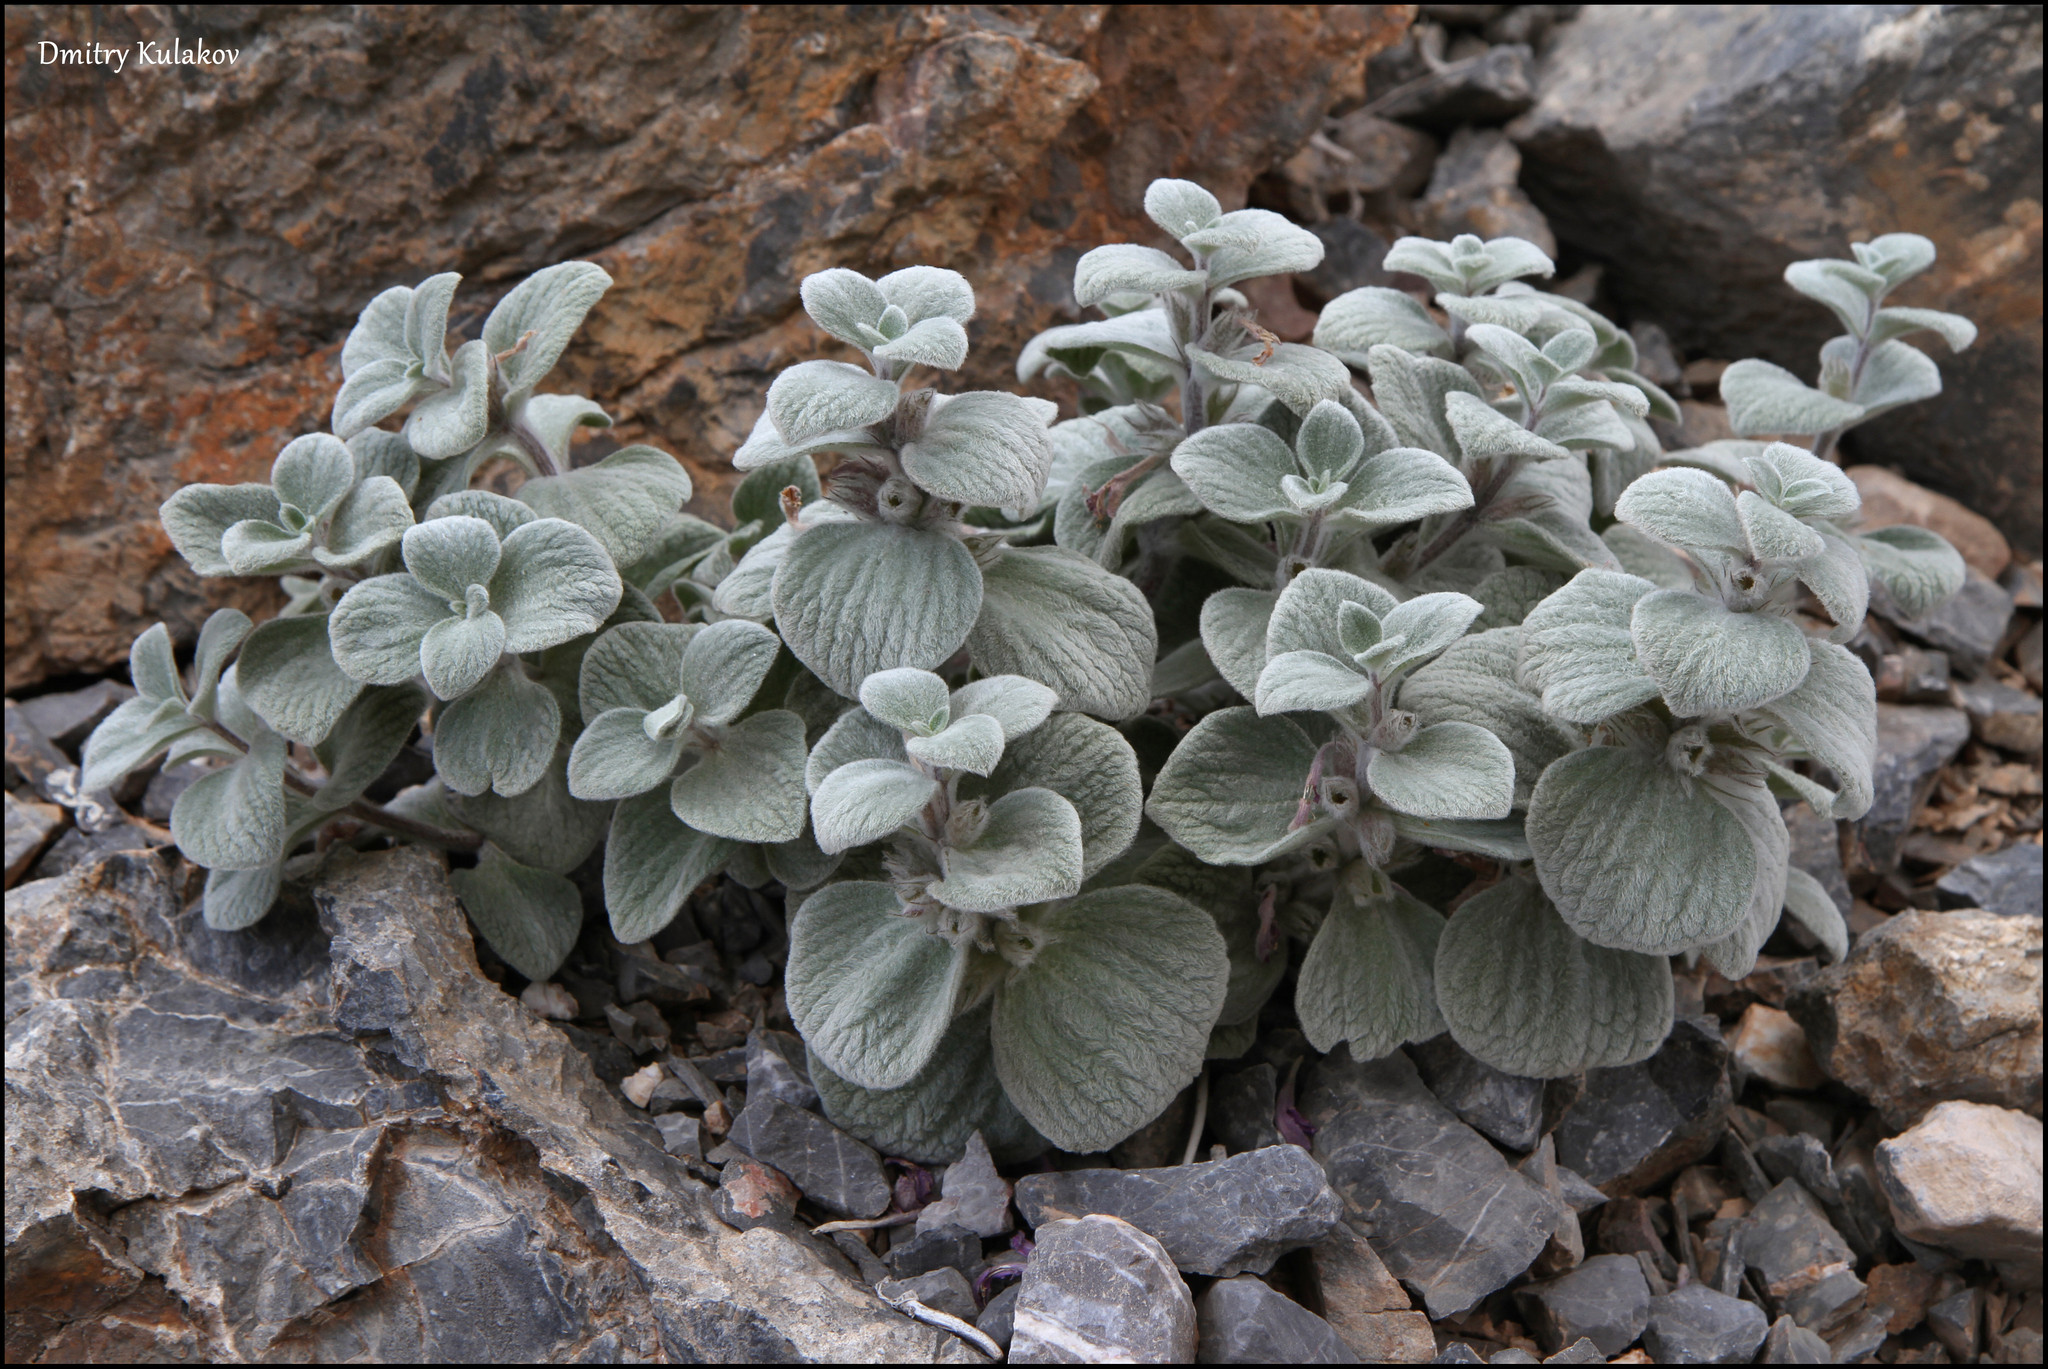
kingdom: Plantae
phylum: Tracheophyta
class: Magnoliopsida
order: Lamiales
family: Lamiaceae
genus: Eriophyton
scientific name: Eriophyton rhomboideum
